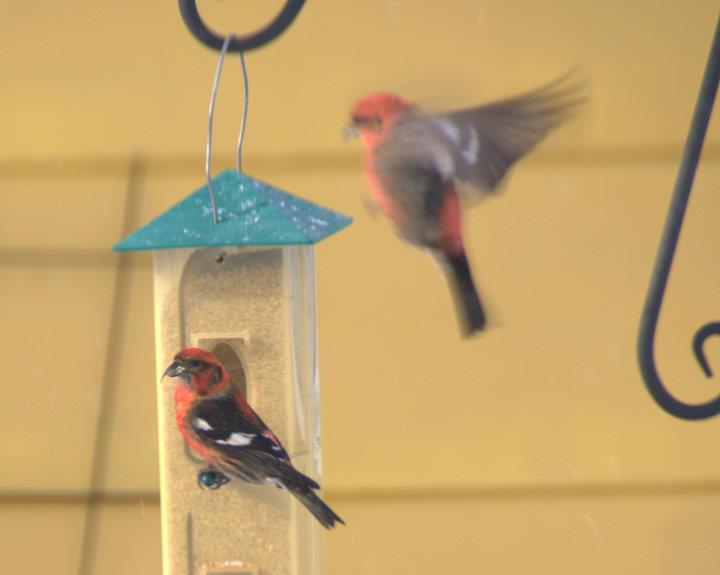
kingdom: Animalia
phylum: Chordata
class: Aves
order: Passeriformes
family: Fringillidae
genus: Loxia
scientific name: Loxia leucoptera
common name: Two-barred crossbill
